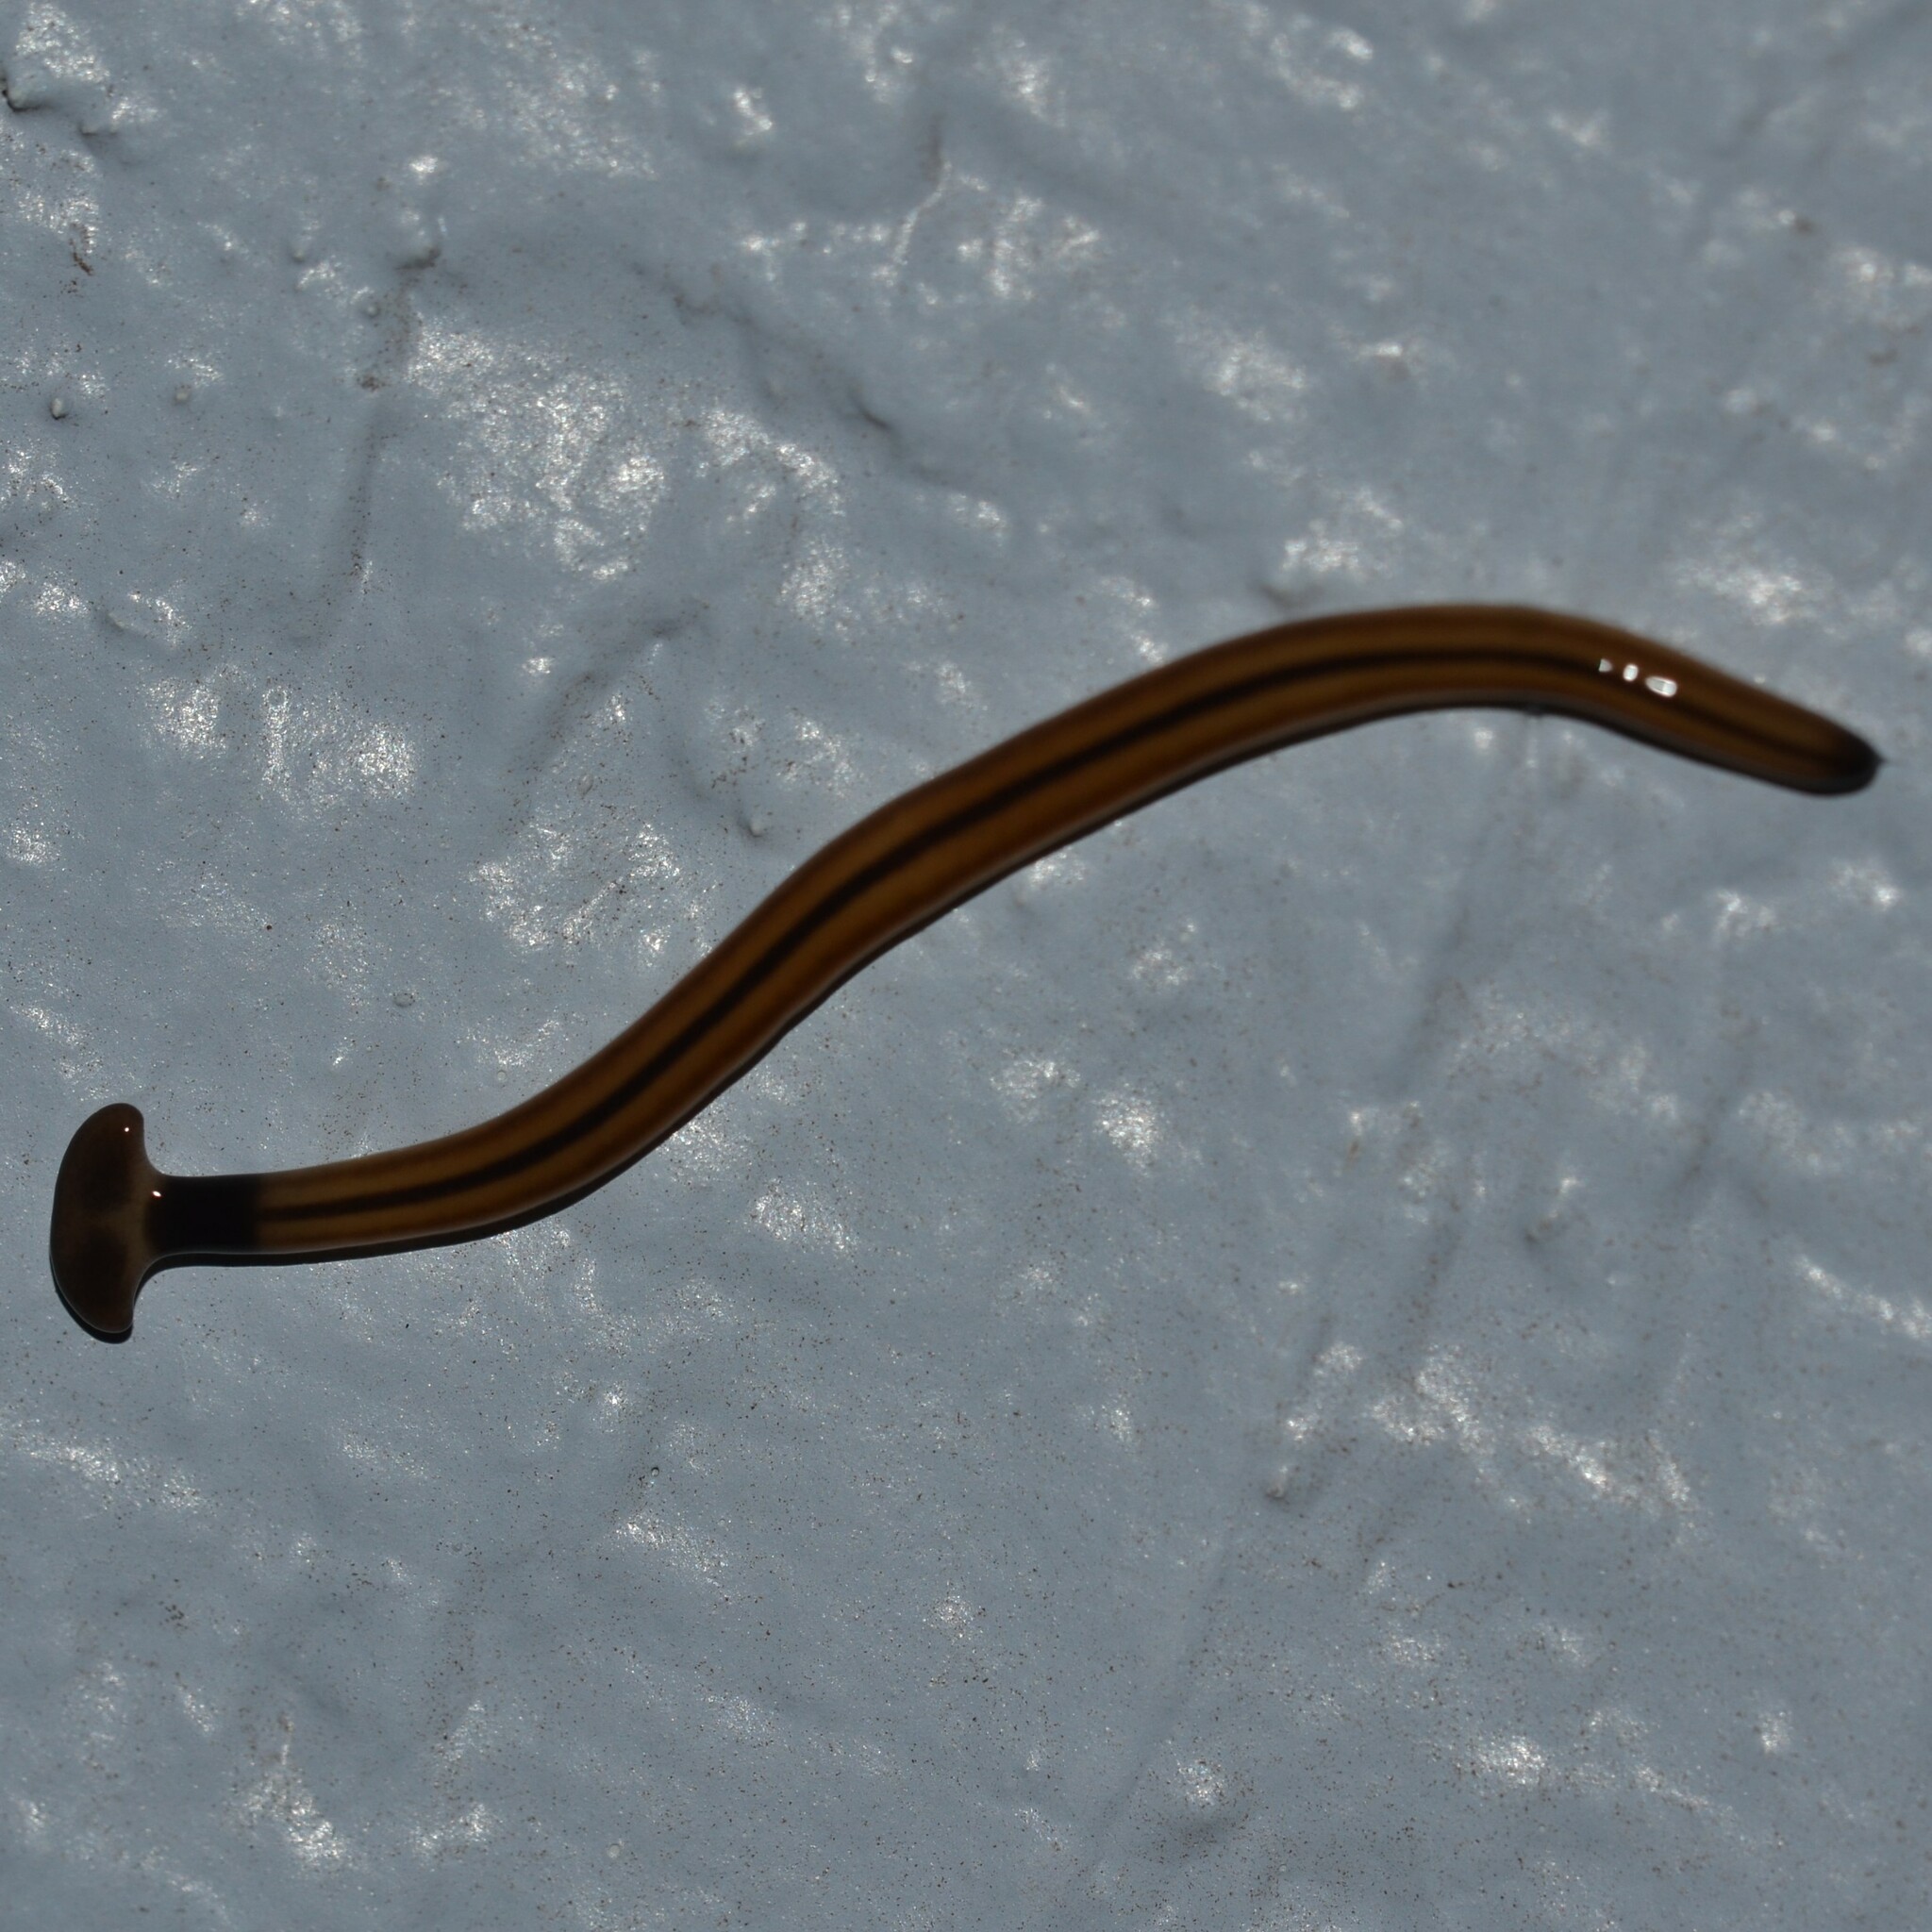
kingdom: Animalia
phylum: Platyhelminthes
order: Tricladida
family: Geoplanidae
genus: Bipalium
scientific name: Bipalium vagum
